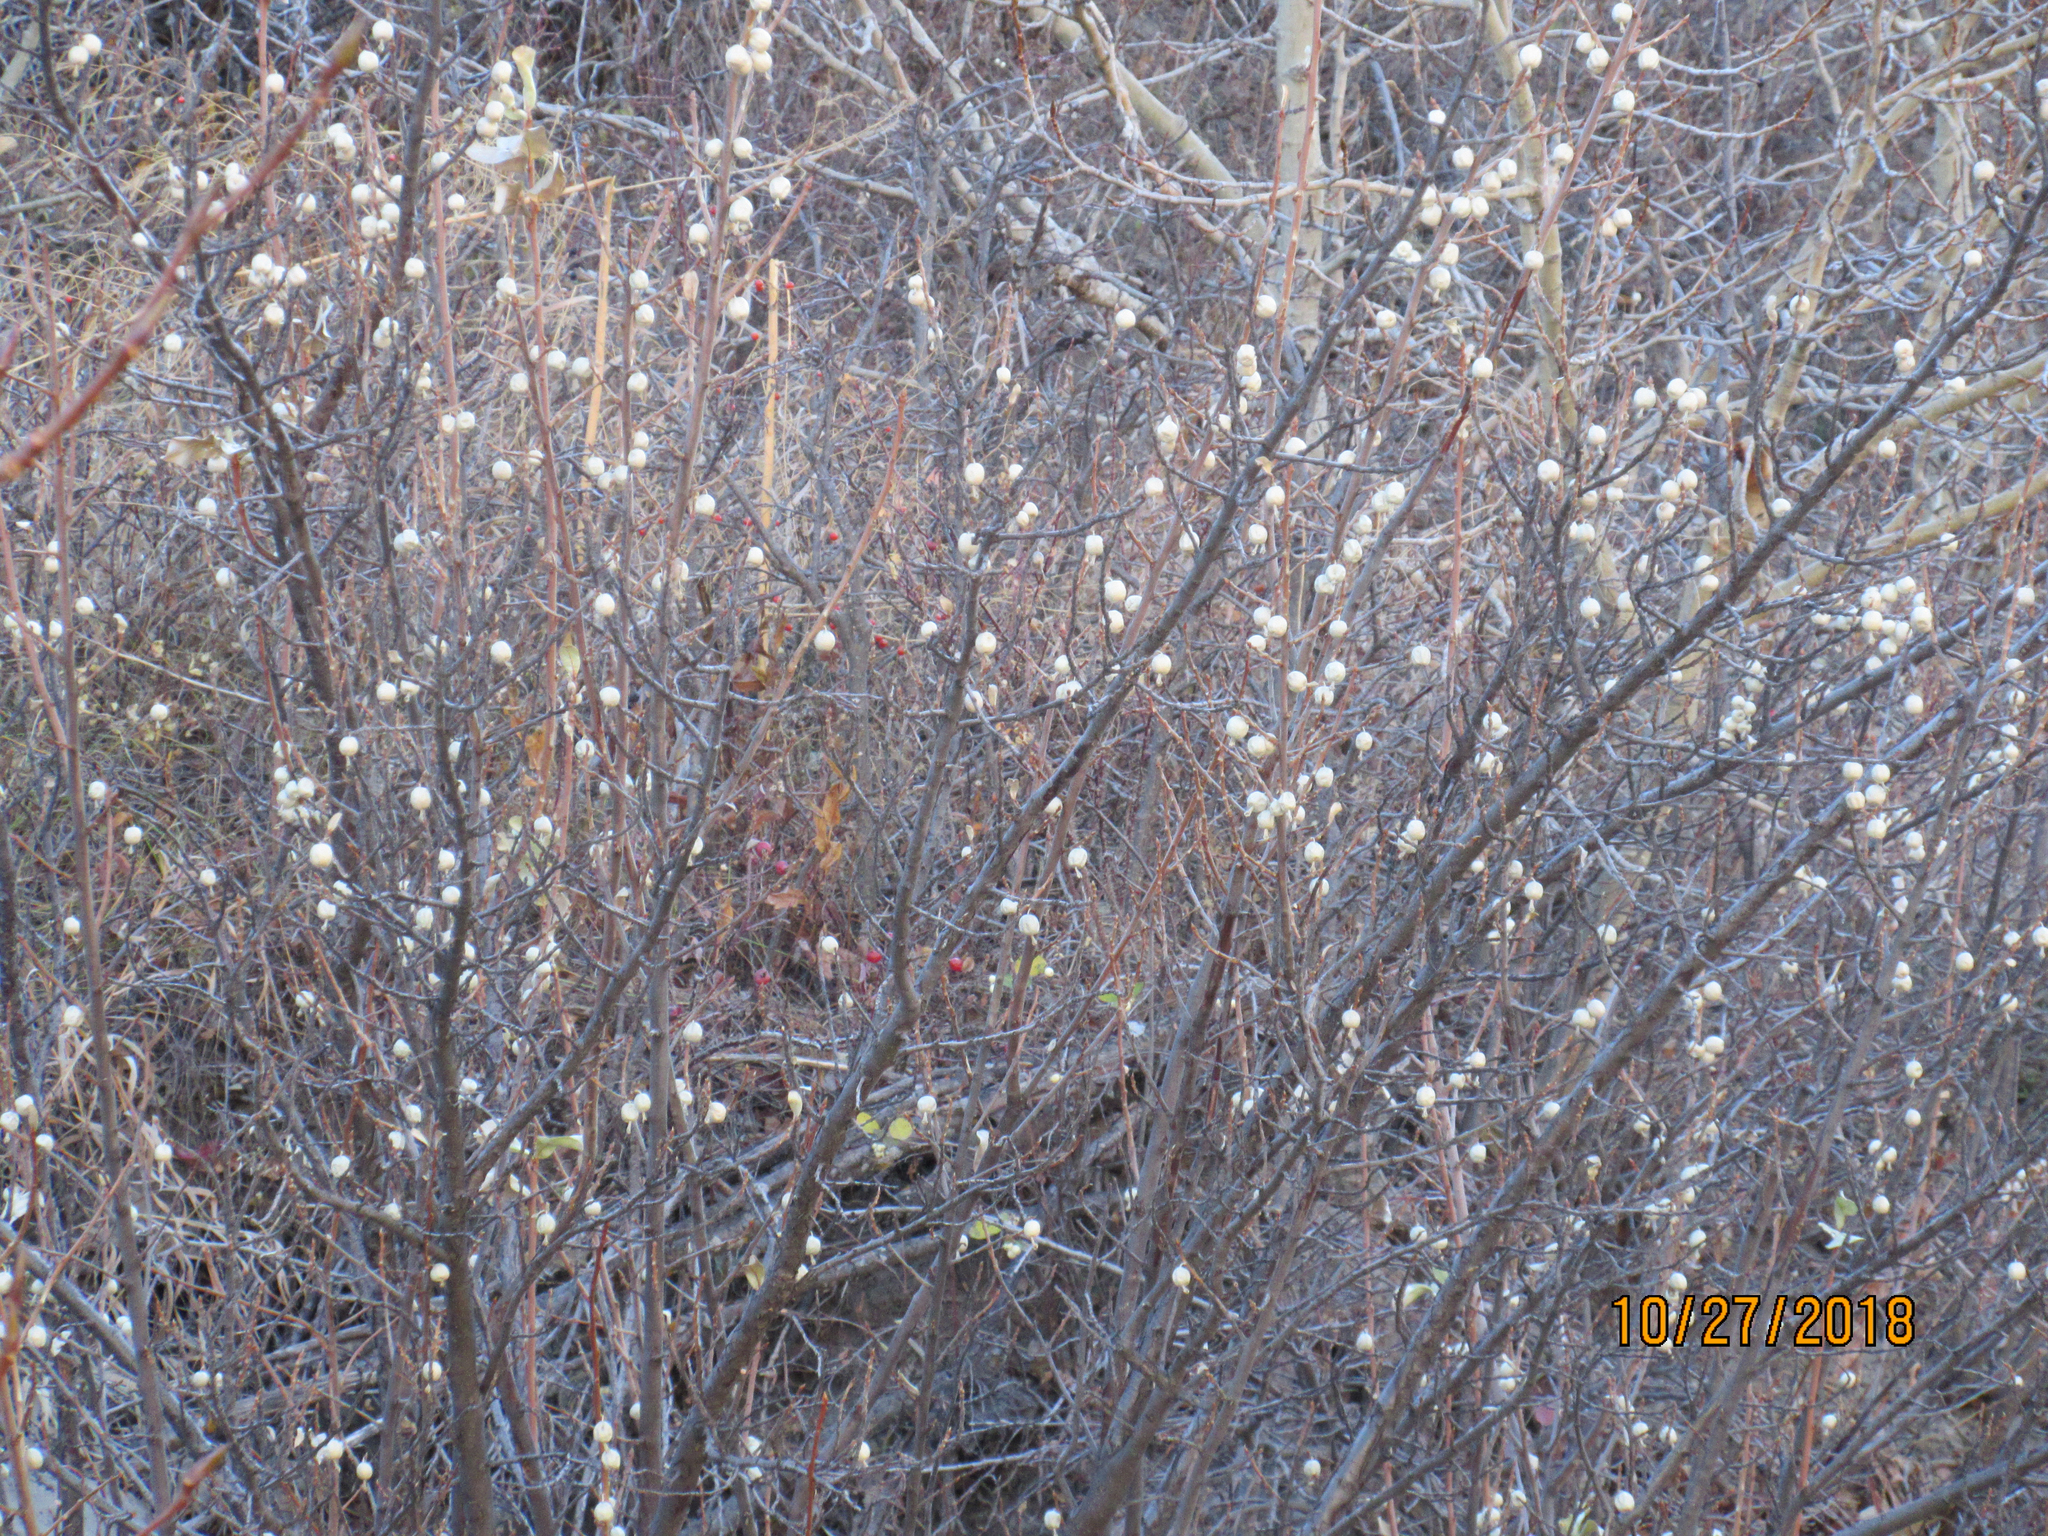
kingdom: Plantae
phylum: Tracheophyta
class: Magnoliopsida
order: Rosales
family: Elaeagnaceae
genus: Elaeagnus
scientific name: Elaeagnus commutata
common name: Silverberry
